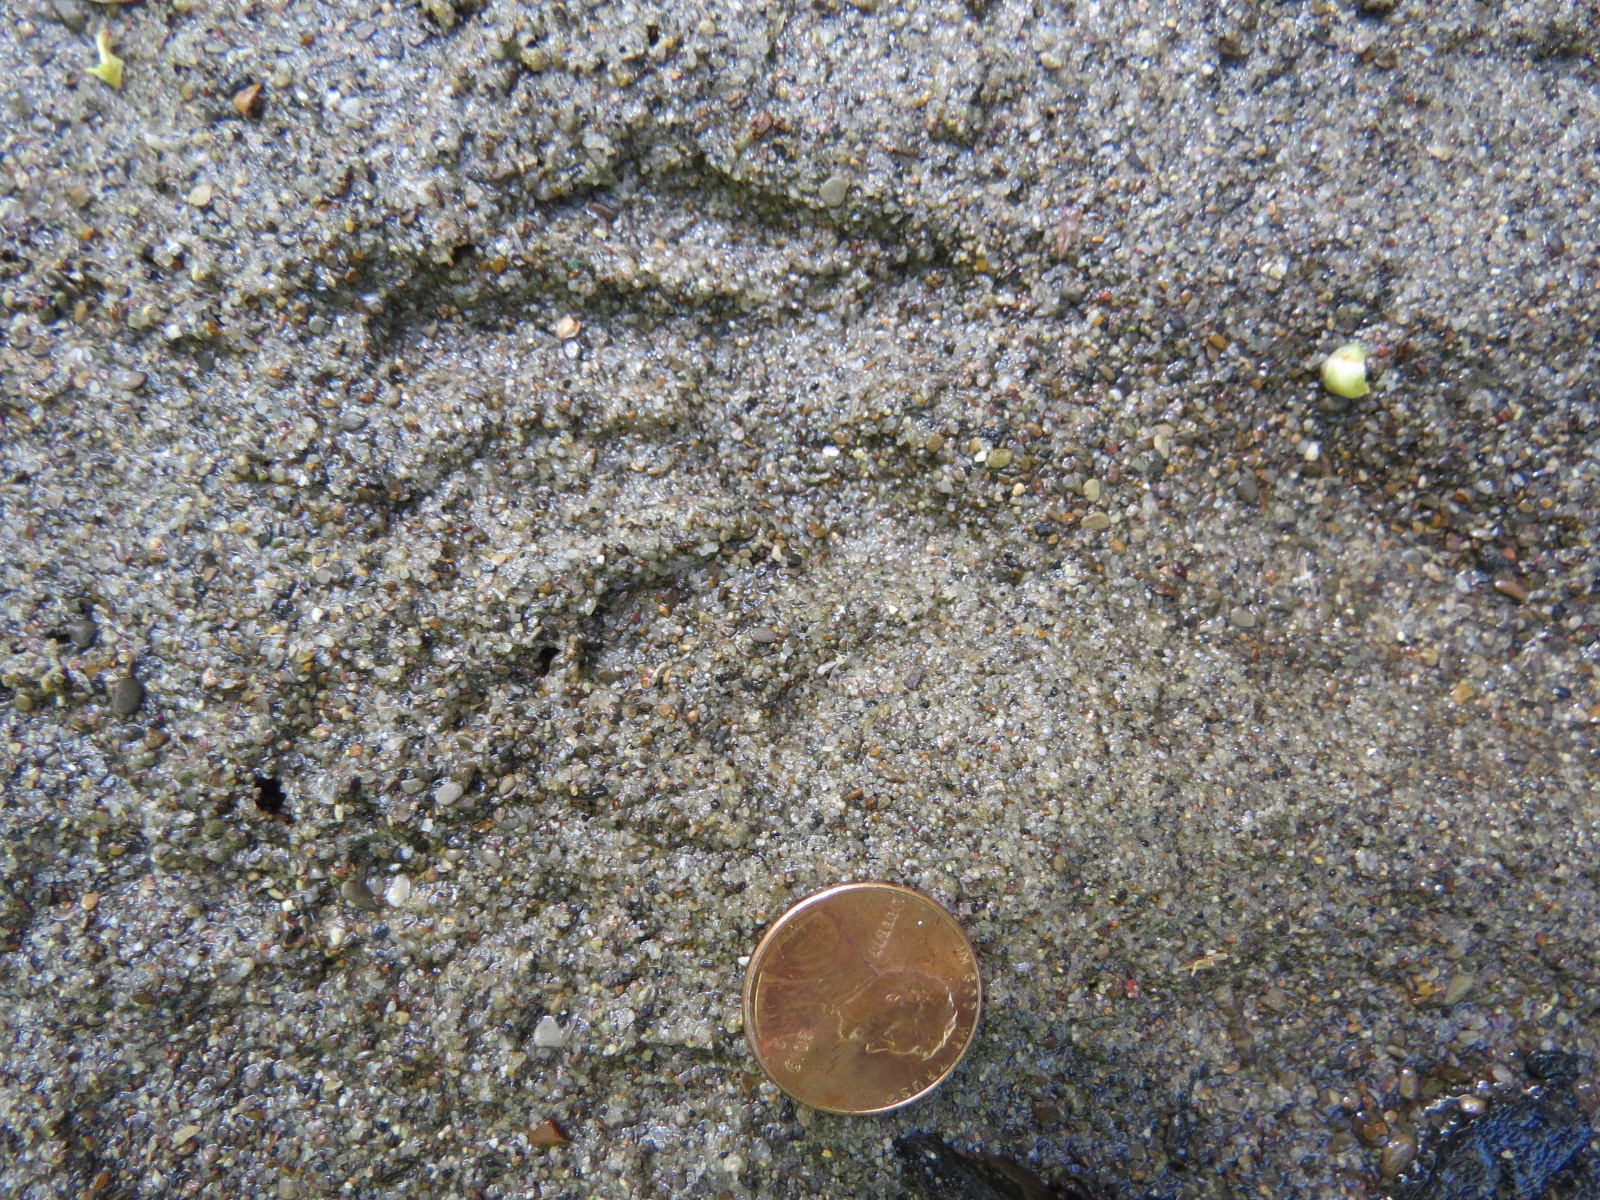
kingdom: Animalia
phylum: Chordata
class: Mammalia
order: Carnivora
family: Procyonidae
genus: Procyon
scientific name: Procyon lotor
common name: Raccoon
